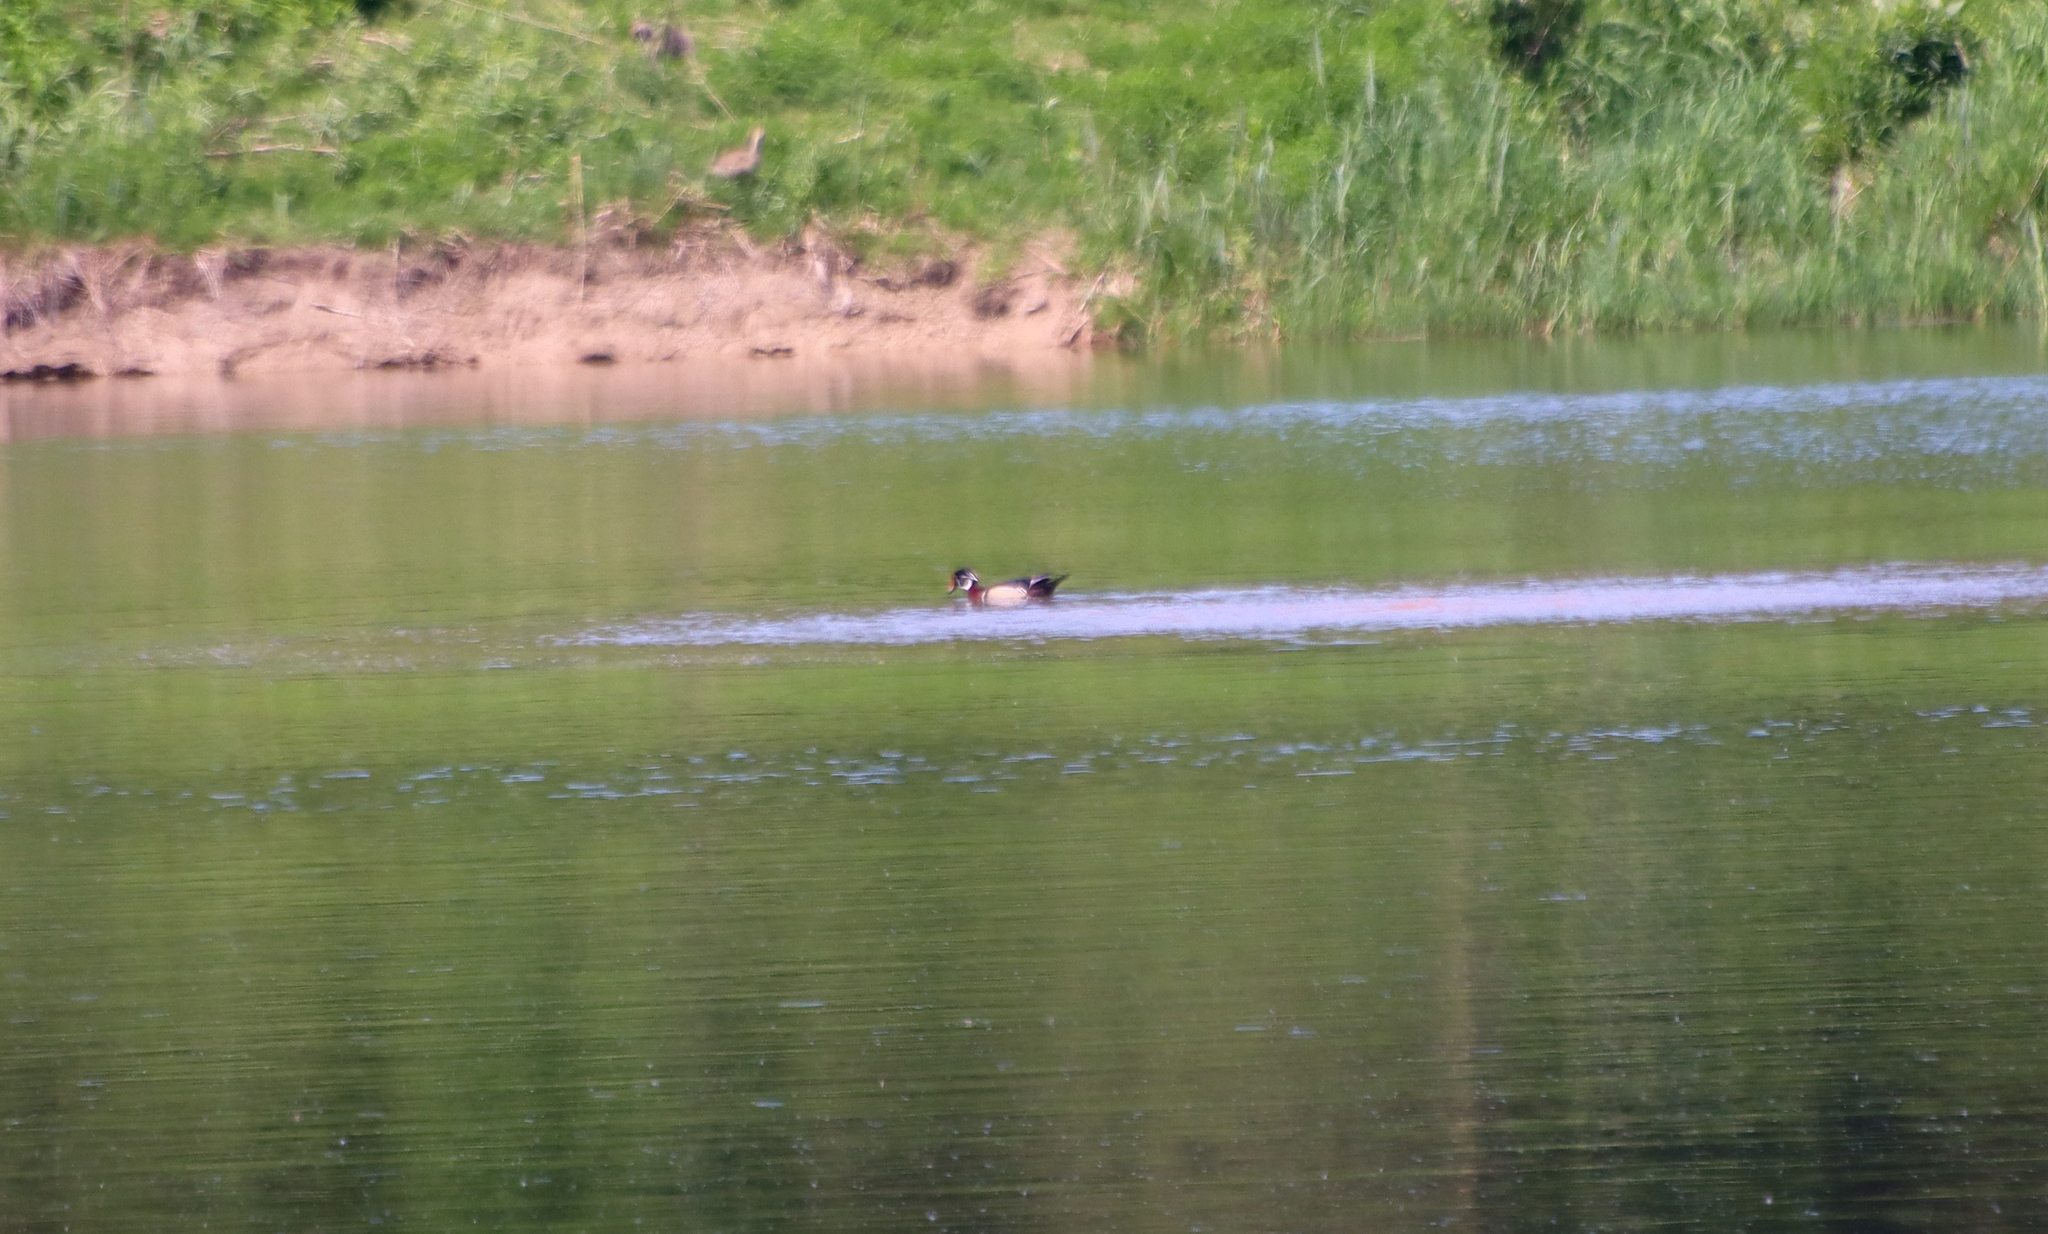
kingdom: Animalia
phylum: Chordata
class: Aves
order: Anseriformes
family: Anatidae
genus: Aix
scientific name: Aix sponsa
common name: Wood duck
